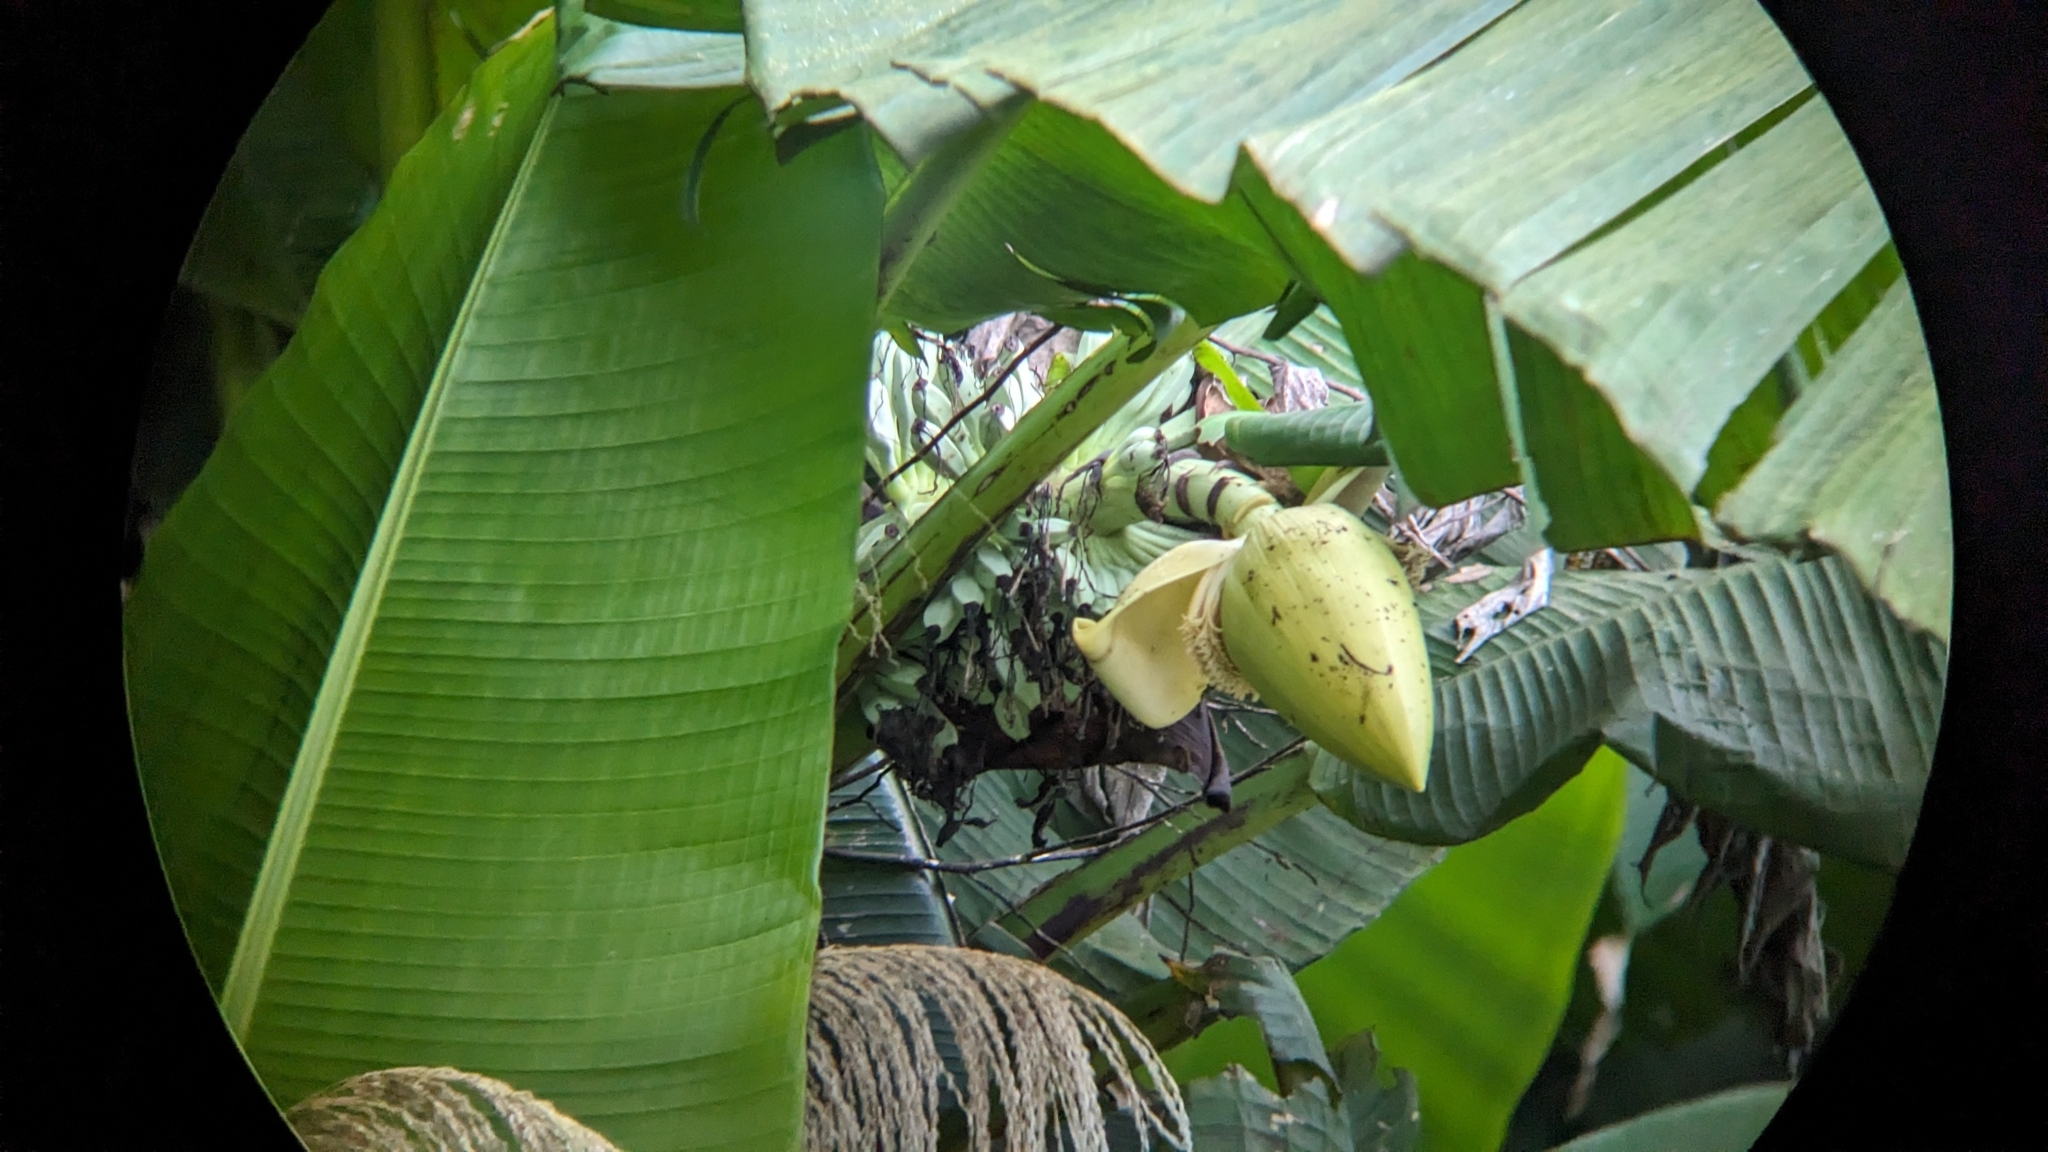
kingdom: Plantae
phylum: Tracheophyta
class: Liliopsida
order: Zingiberales
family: Musaceae
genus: Musa
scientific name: Musa itinerans
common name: Yunnan banana
